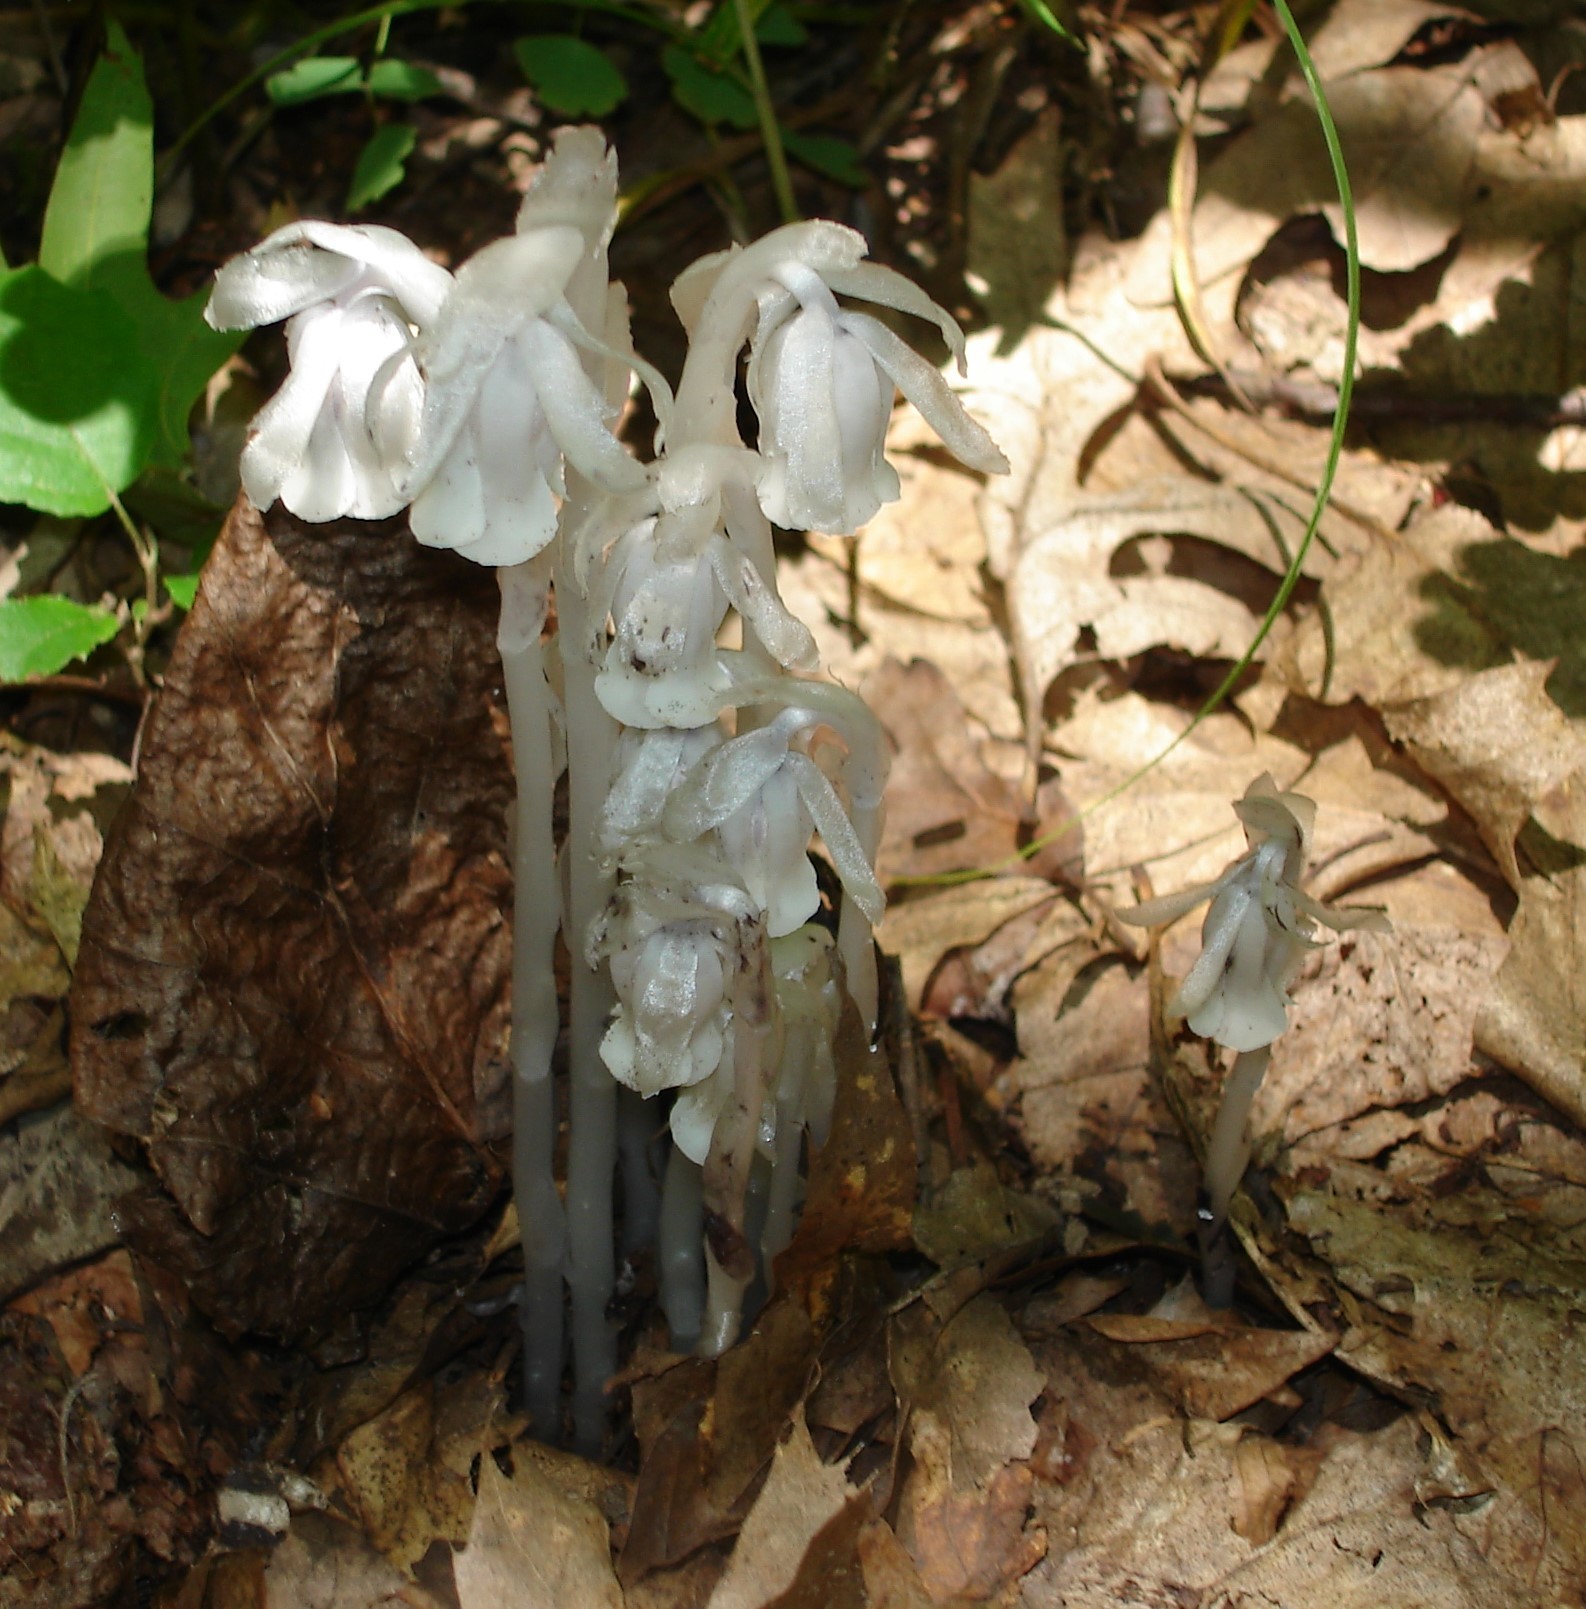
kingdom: Plantae
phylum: Tracheophyta
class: Magnoliopsida
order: Ericales
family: Ericaceae
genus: Monotropa
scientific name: Monotropa uniflora
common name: Convulsion root
